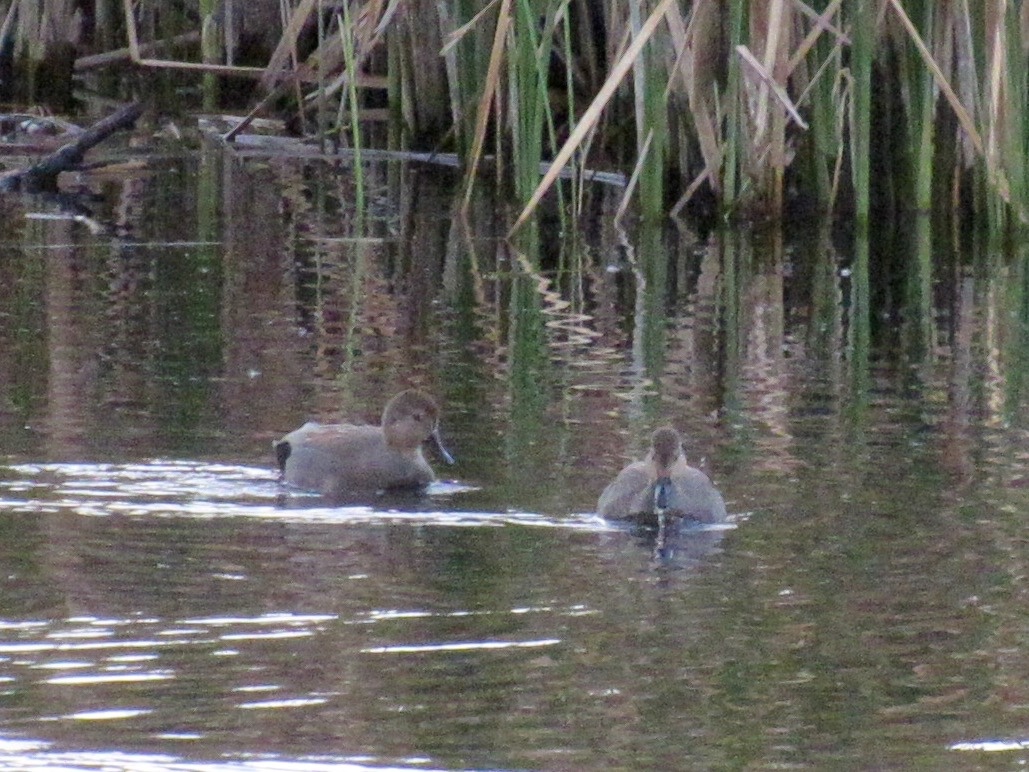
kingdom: Animalia
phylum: Chordata
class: Aves
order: Anseriformes
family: Anatidae
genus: Mareca
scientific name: Mareca strepera
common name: Gadwall
